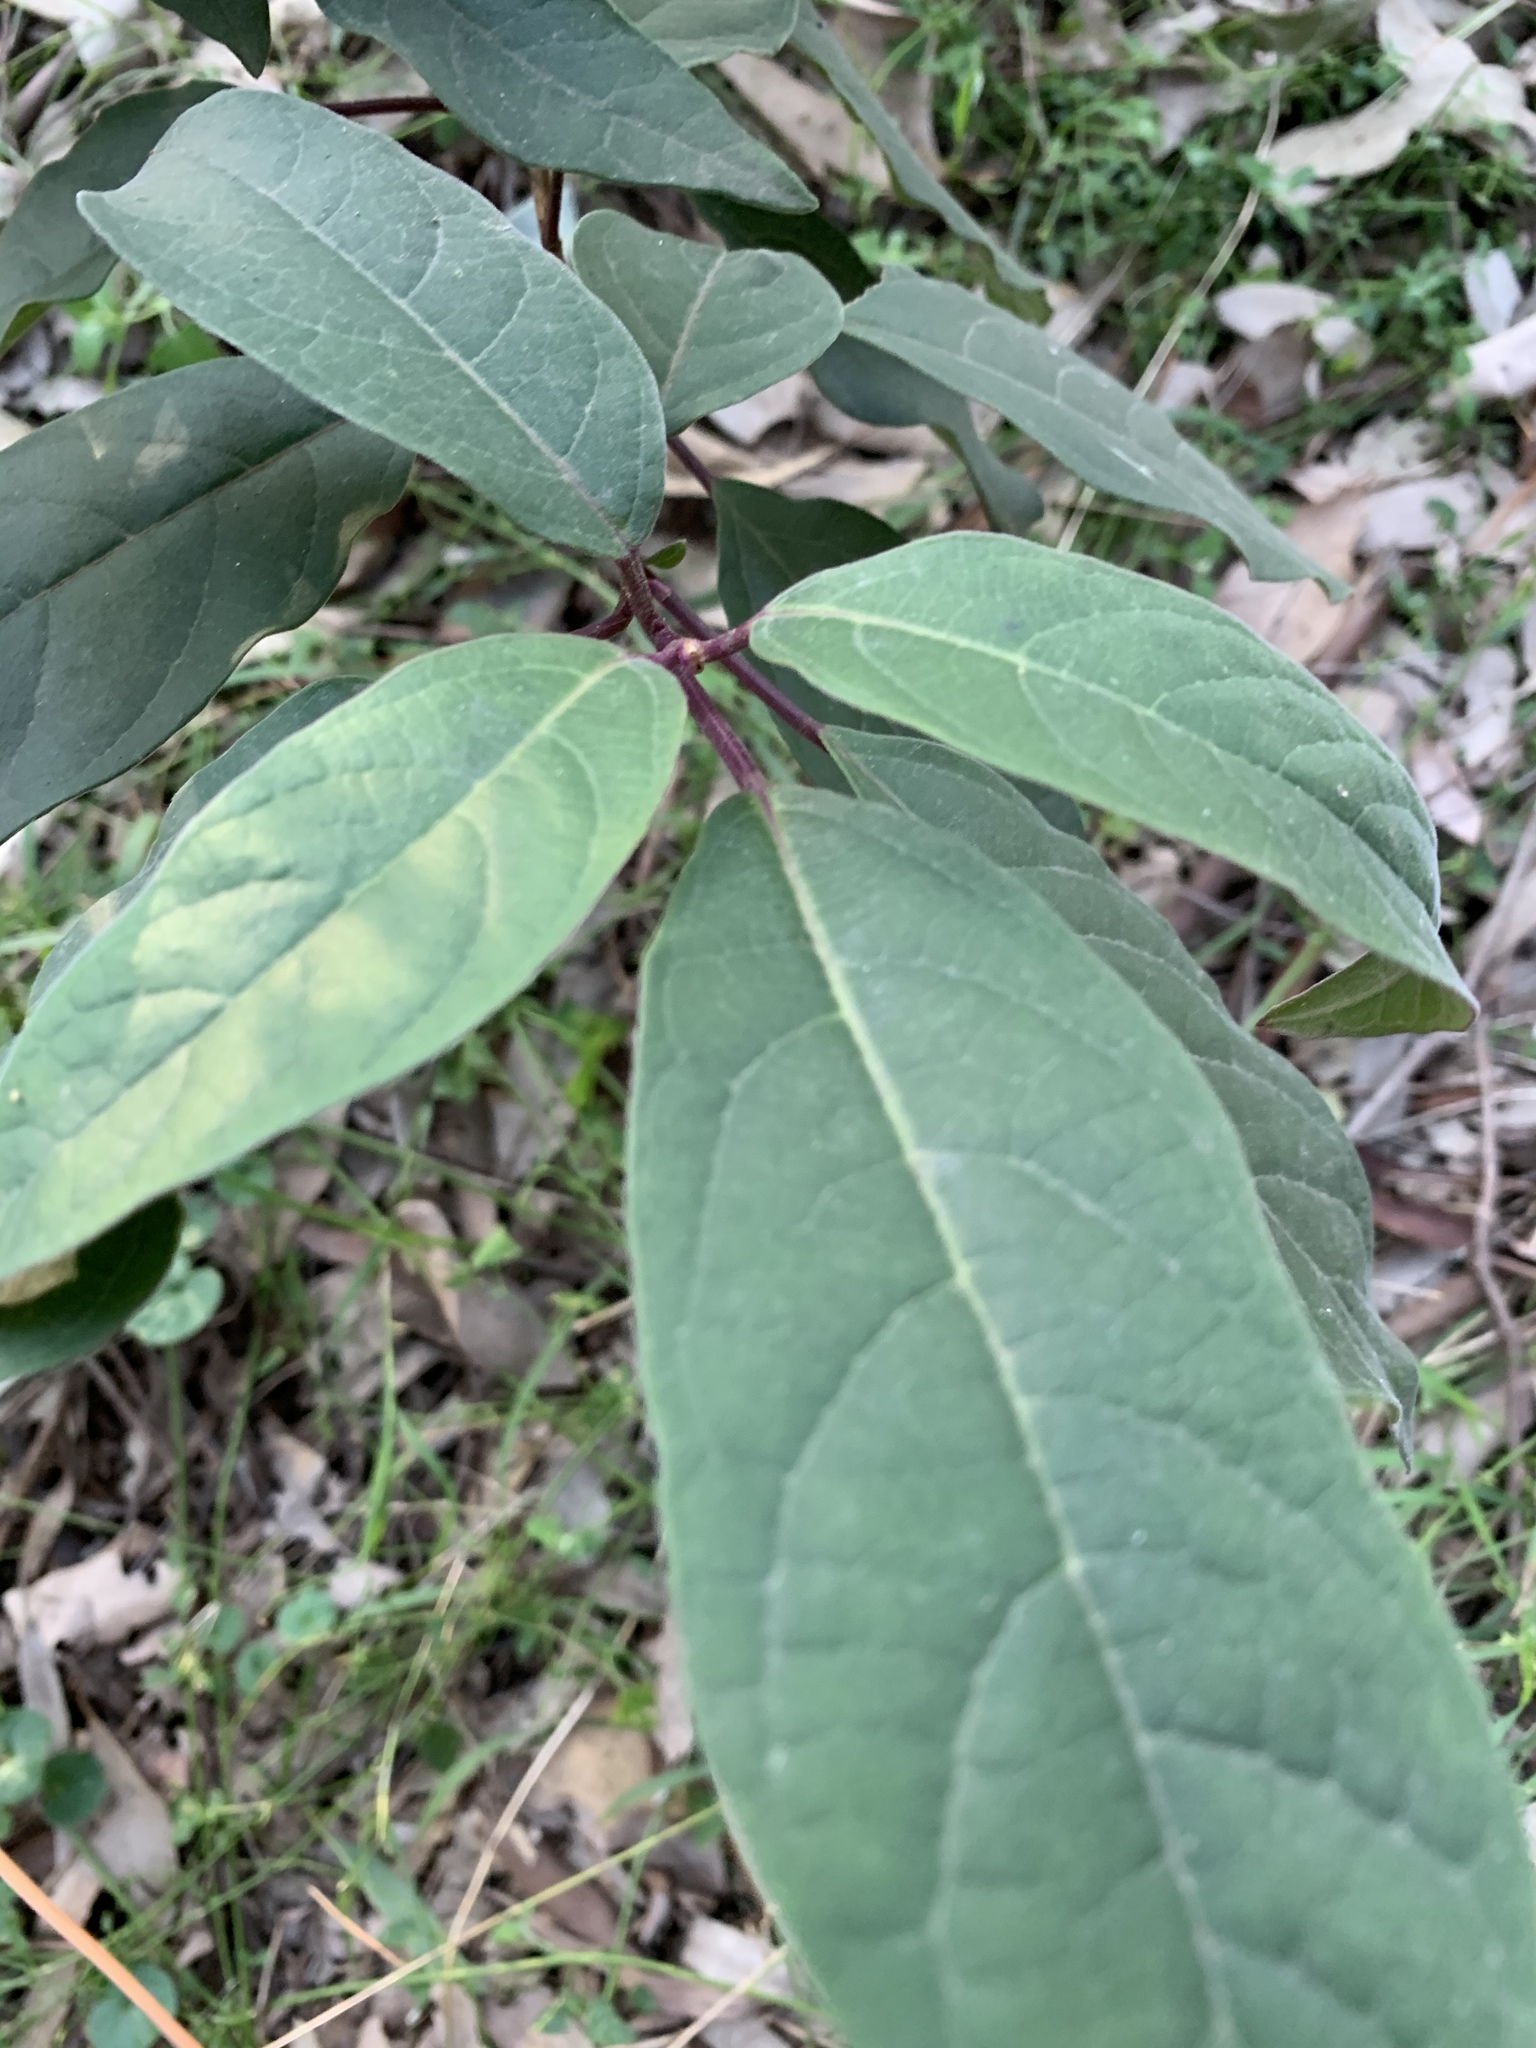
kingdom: Plantae
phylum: Tracheophyta
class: Magnoliopsida
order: Lamiales
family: Lamiaceae
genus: Clerodendrum
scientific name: Clerodendrum tomentosum
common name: Hairy clerodendrum
